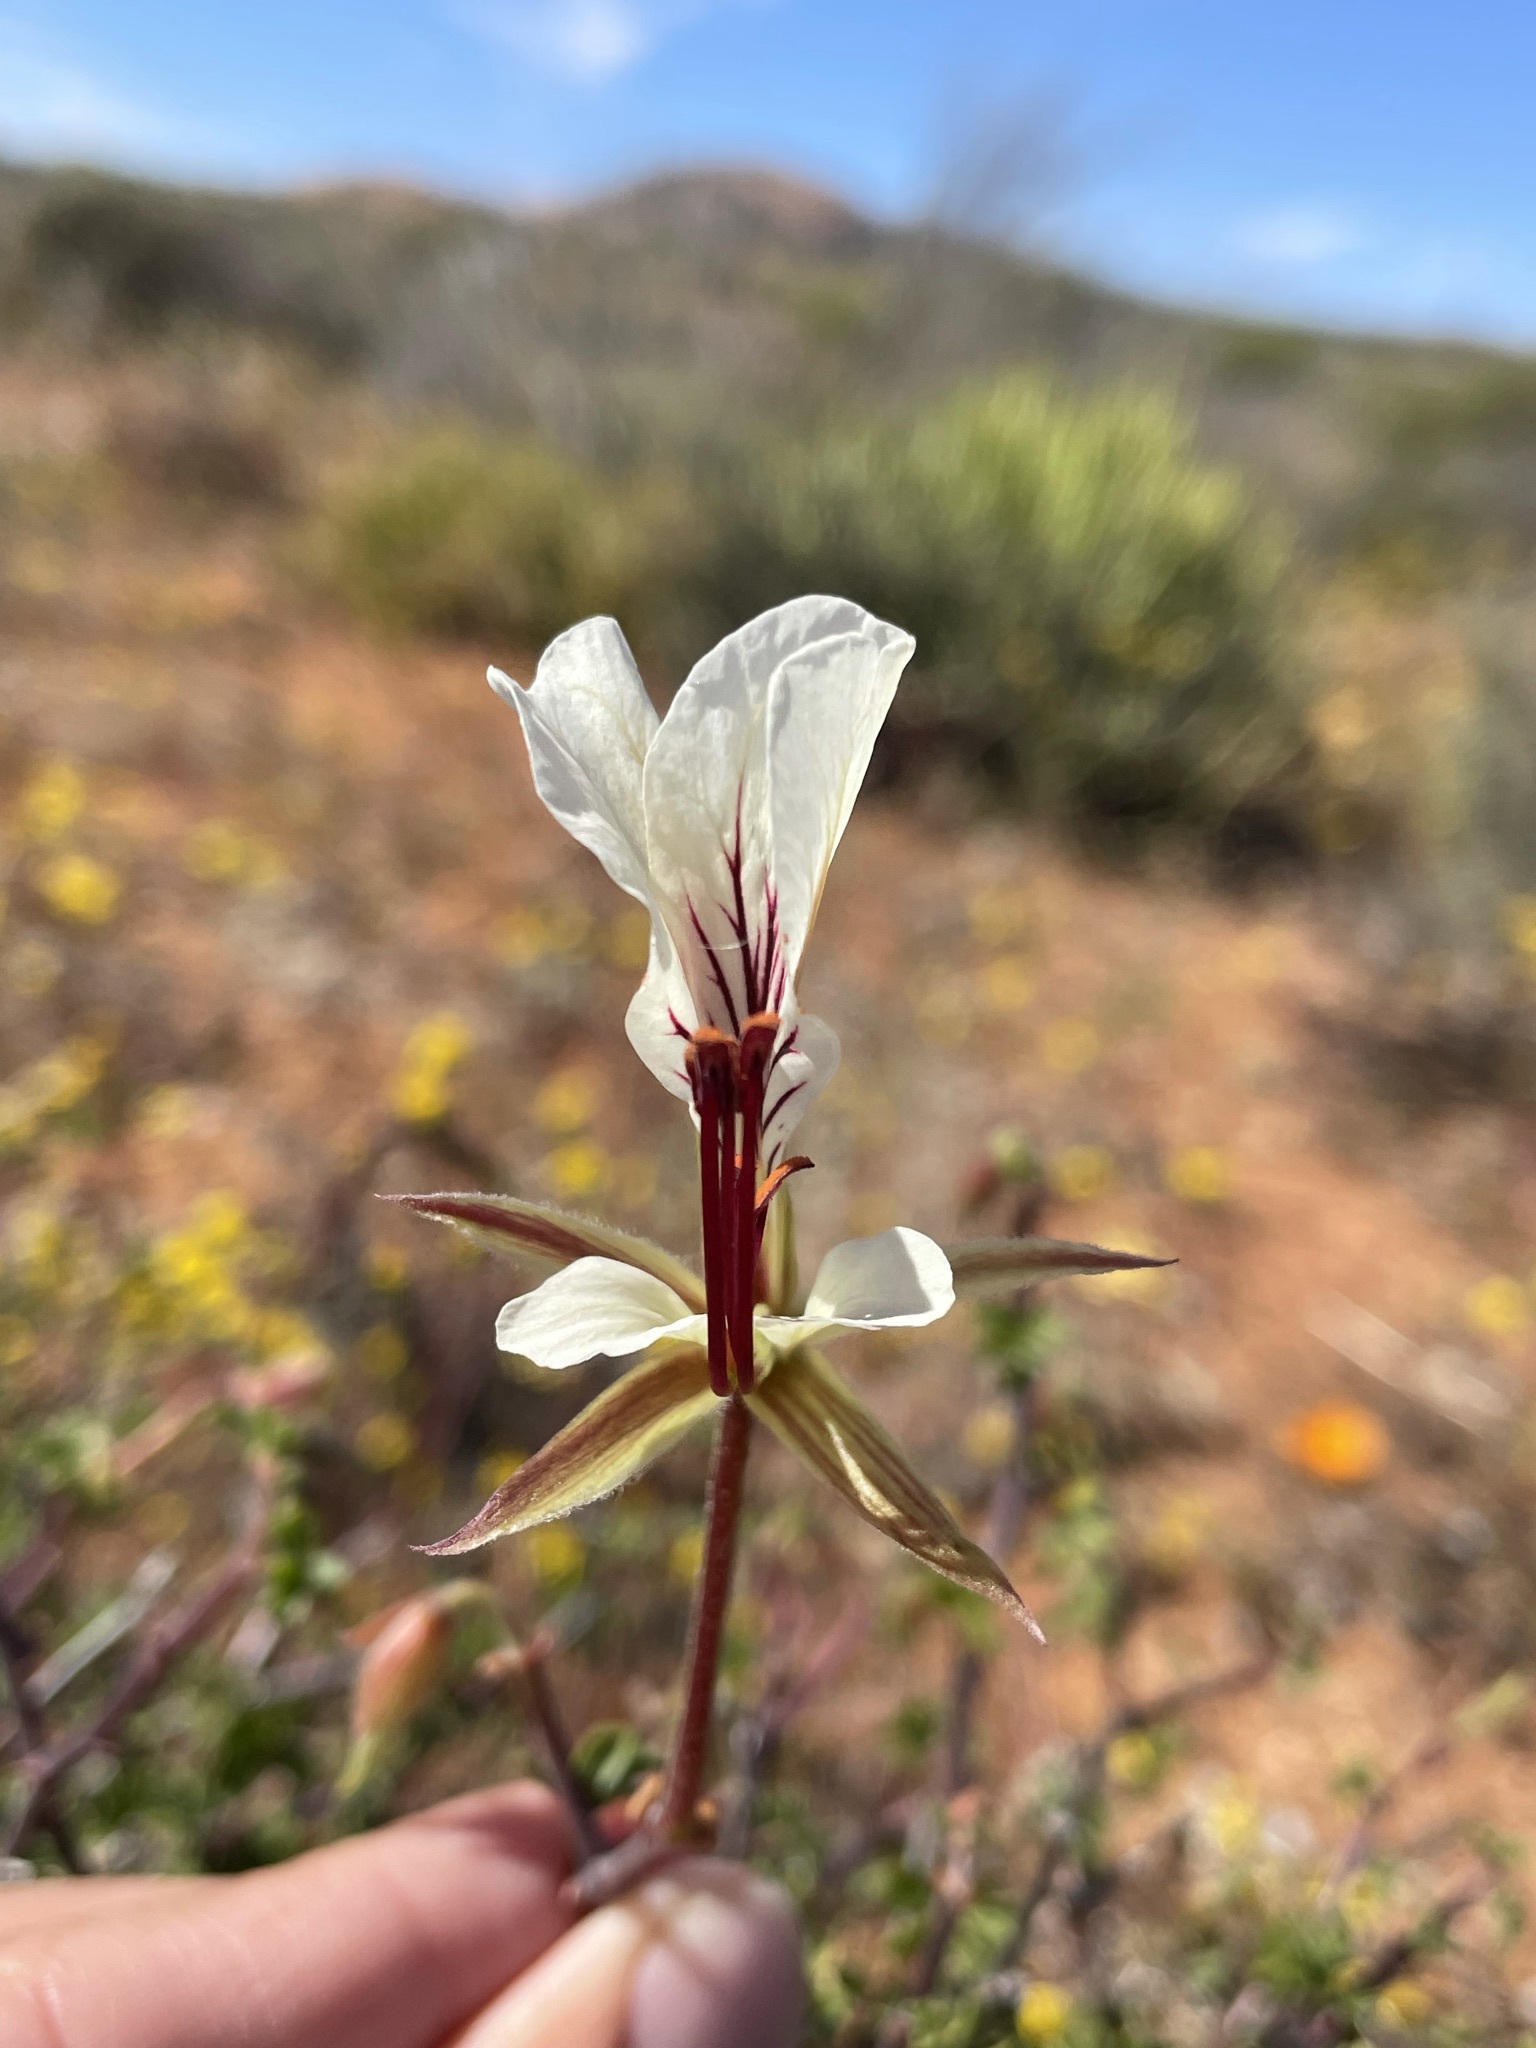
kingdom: Plantae
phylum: Tracheophyta
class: Magnoliopsida
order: Geraniales
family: Geraniaceae
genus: Pelargonium
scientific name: Pelargonium praemorsum
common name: Quinate-leaf pelargonium
